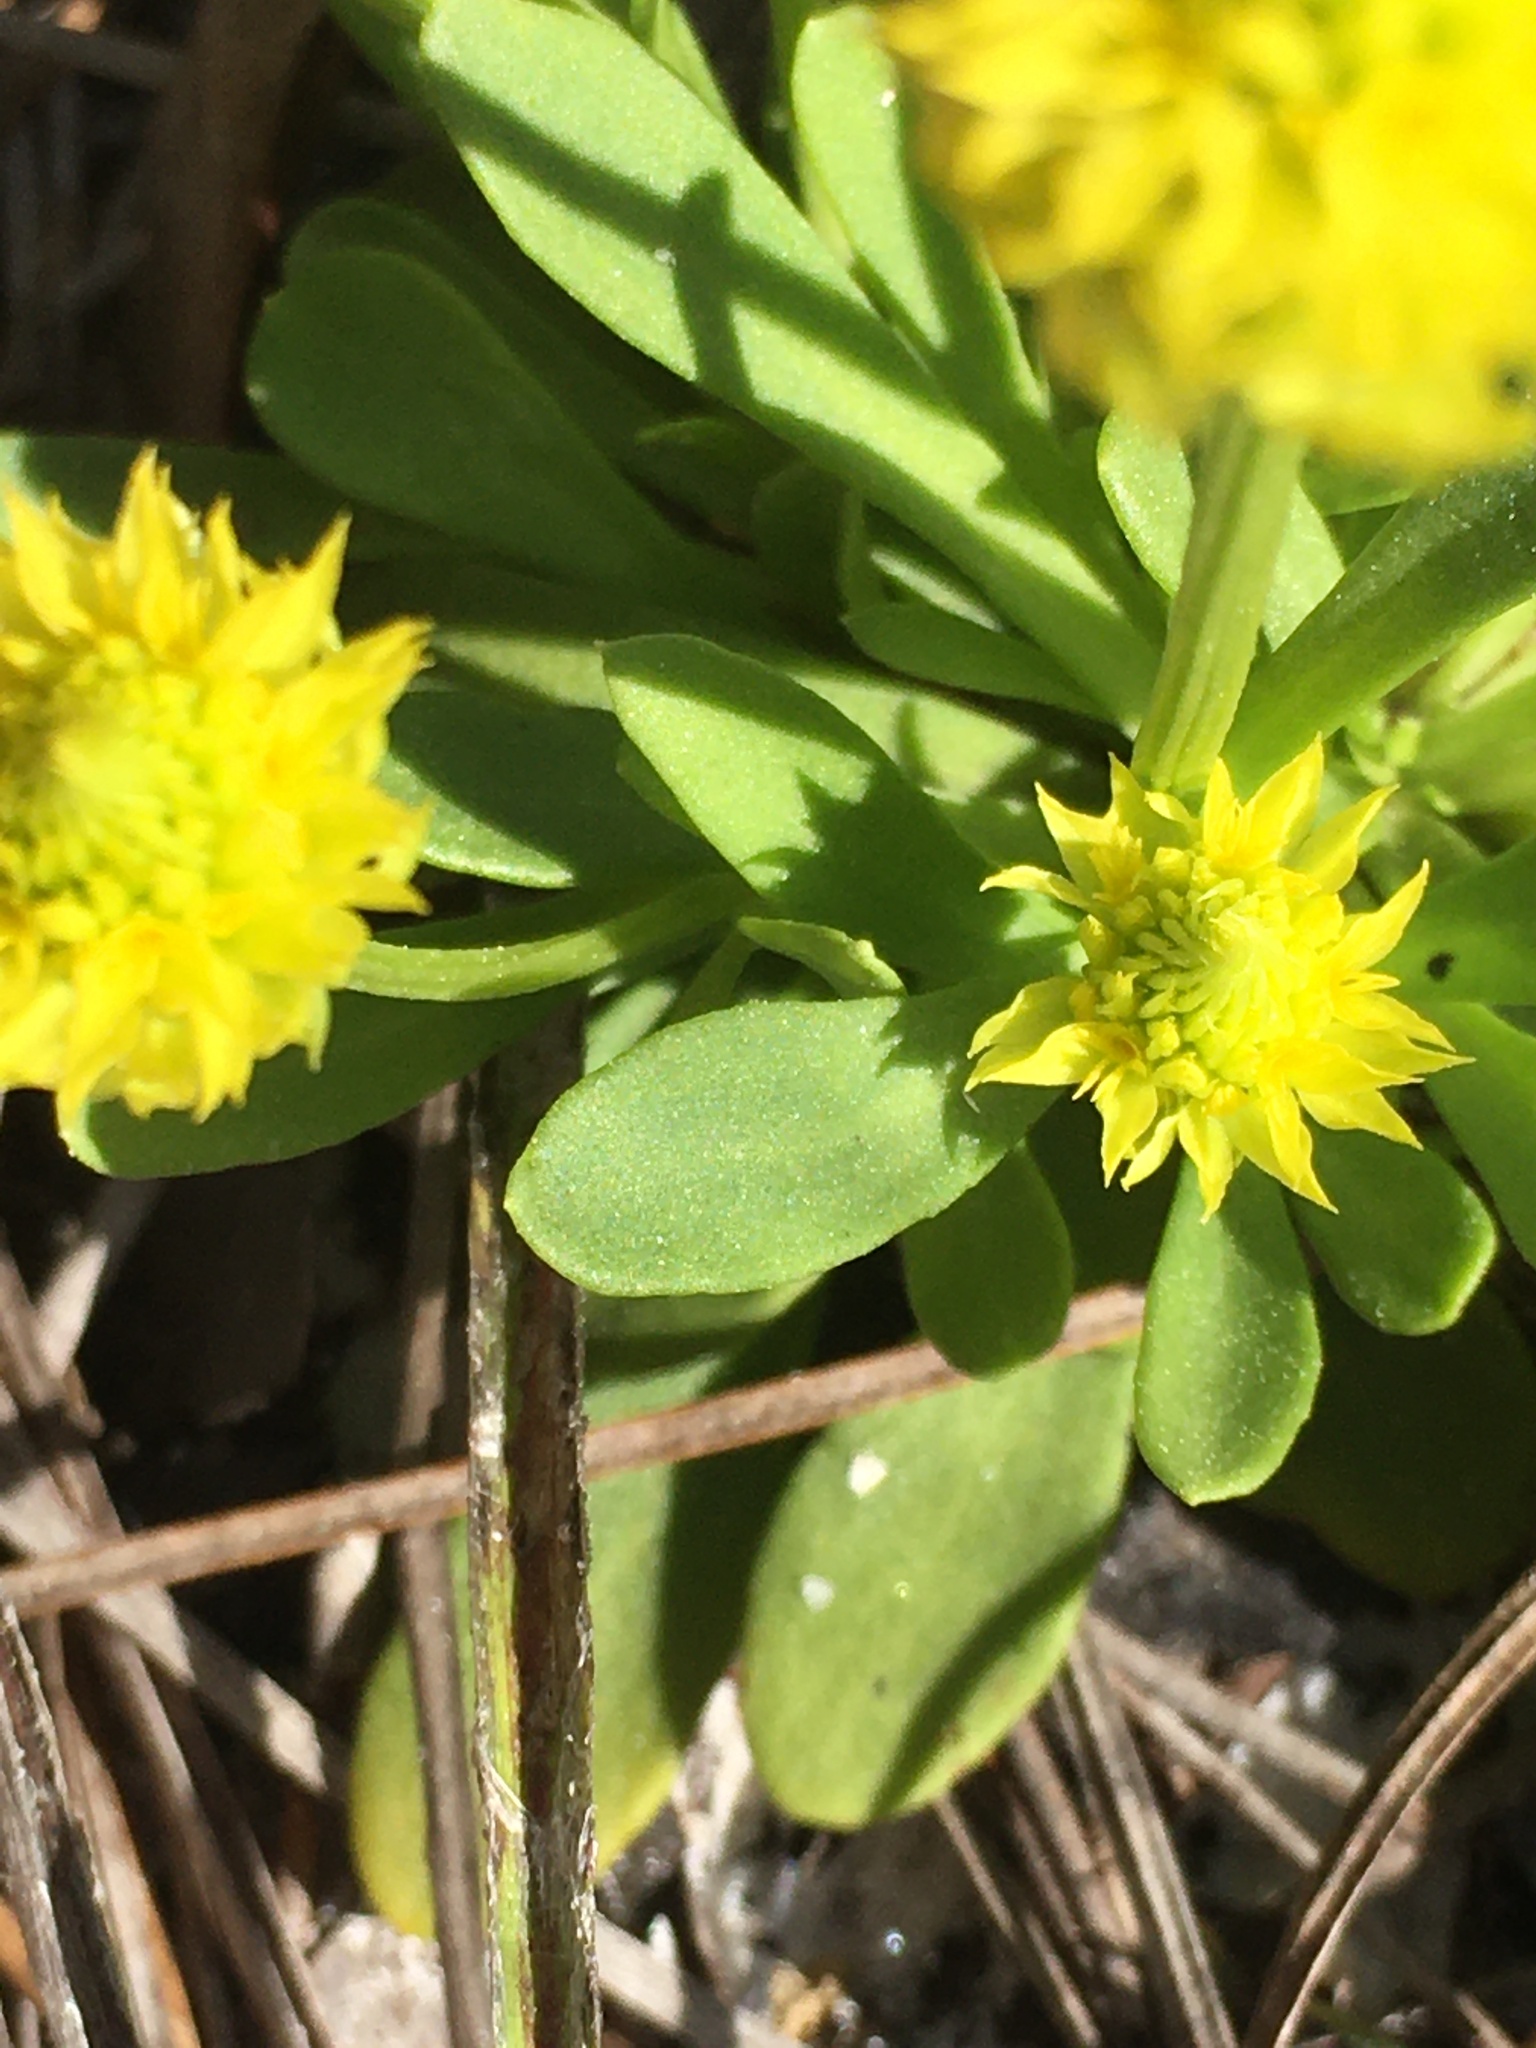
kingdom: Plantae
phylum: Tracheophyta
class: Magnoliopsida
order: Fabales
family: Polygalaceae
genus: Polygala
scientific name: Polygala nana
